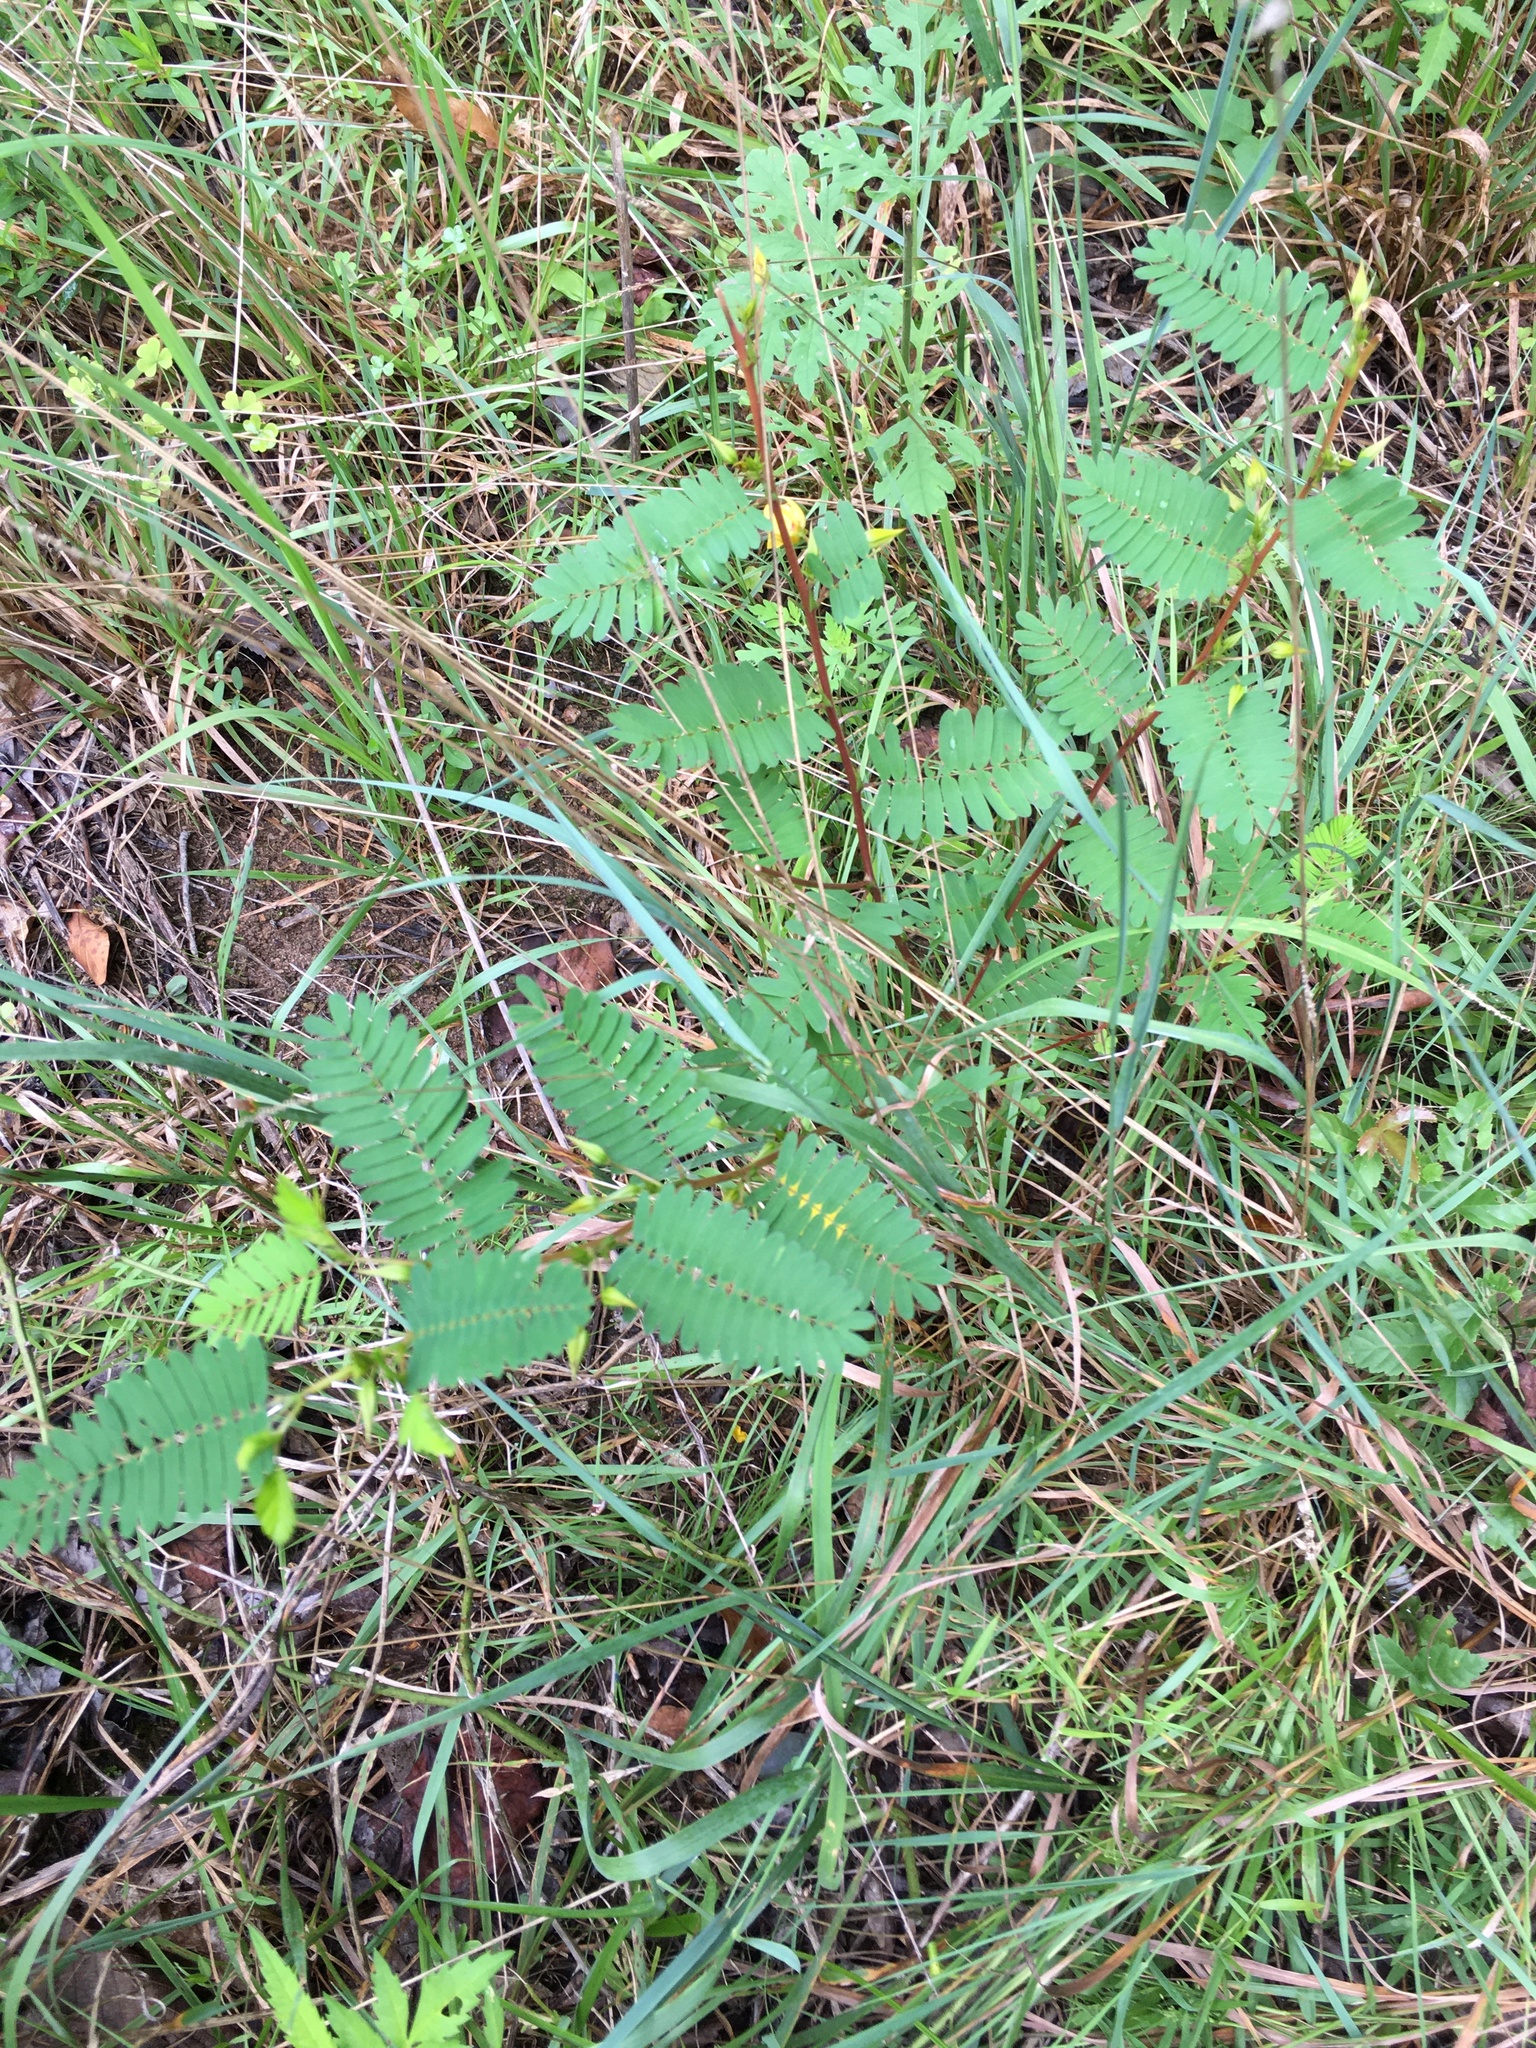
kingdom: Plantae
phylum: Tracheophyta
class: Magnoliopsida
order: Fabales
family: Fabaceae
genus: Chamaecrista
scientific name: Chamaecrista fasciculata
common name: Golden cassia
